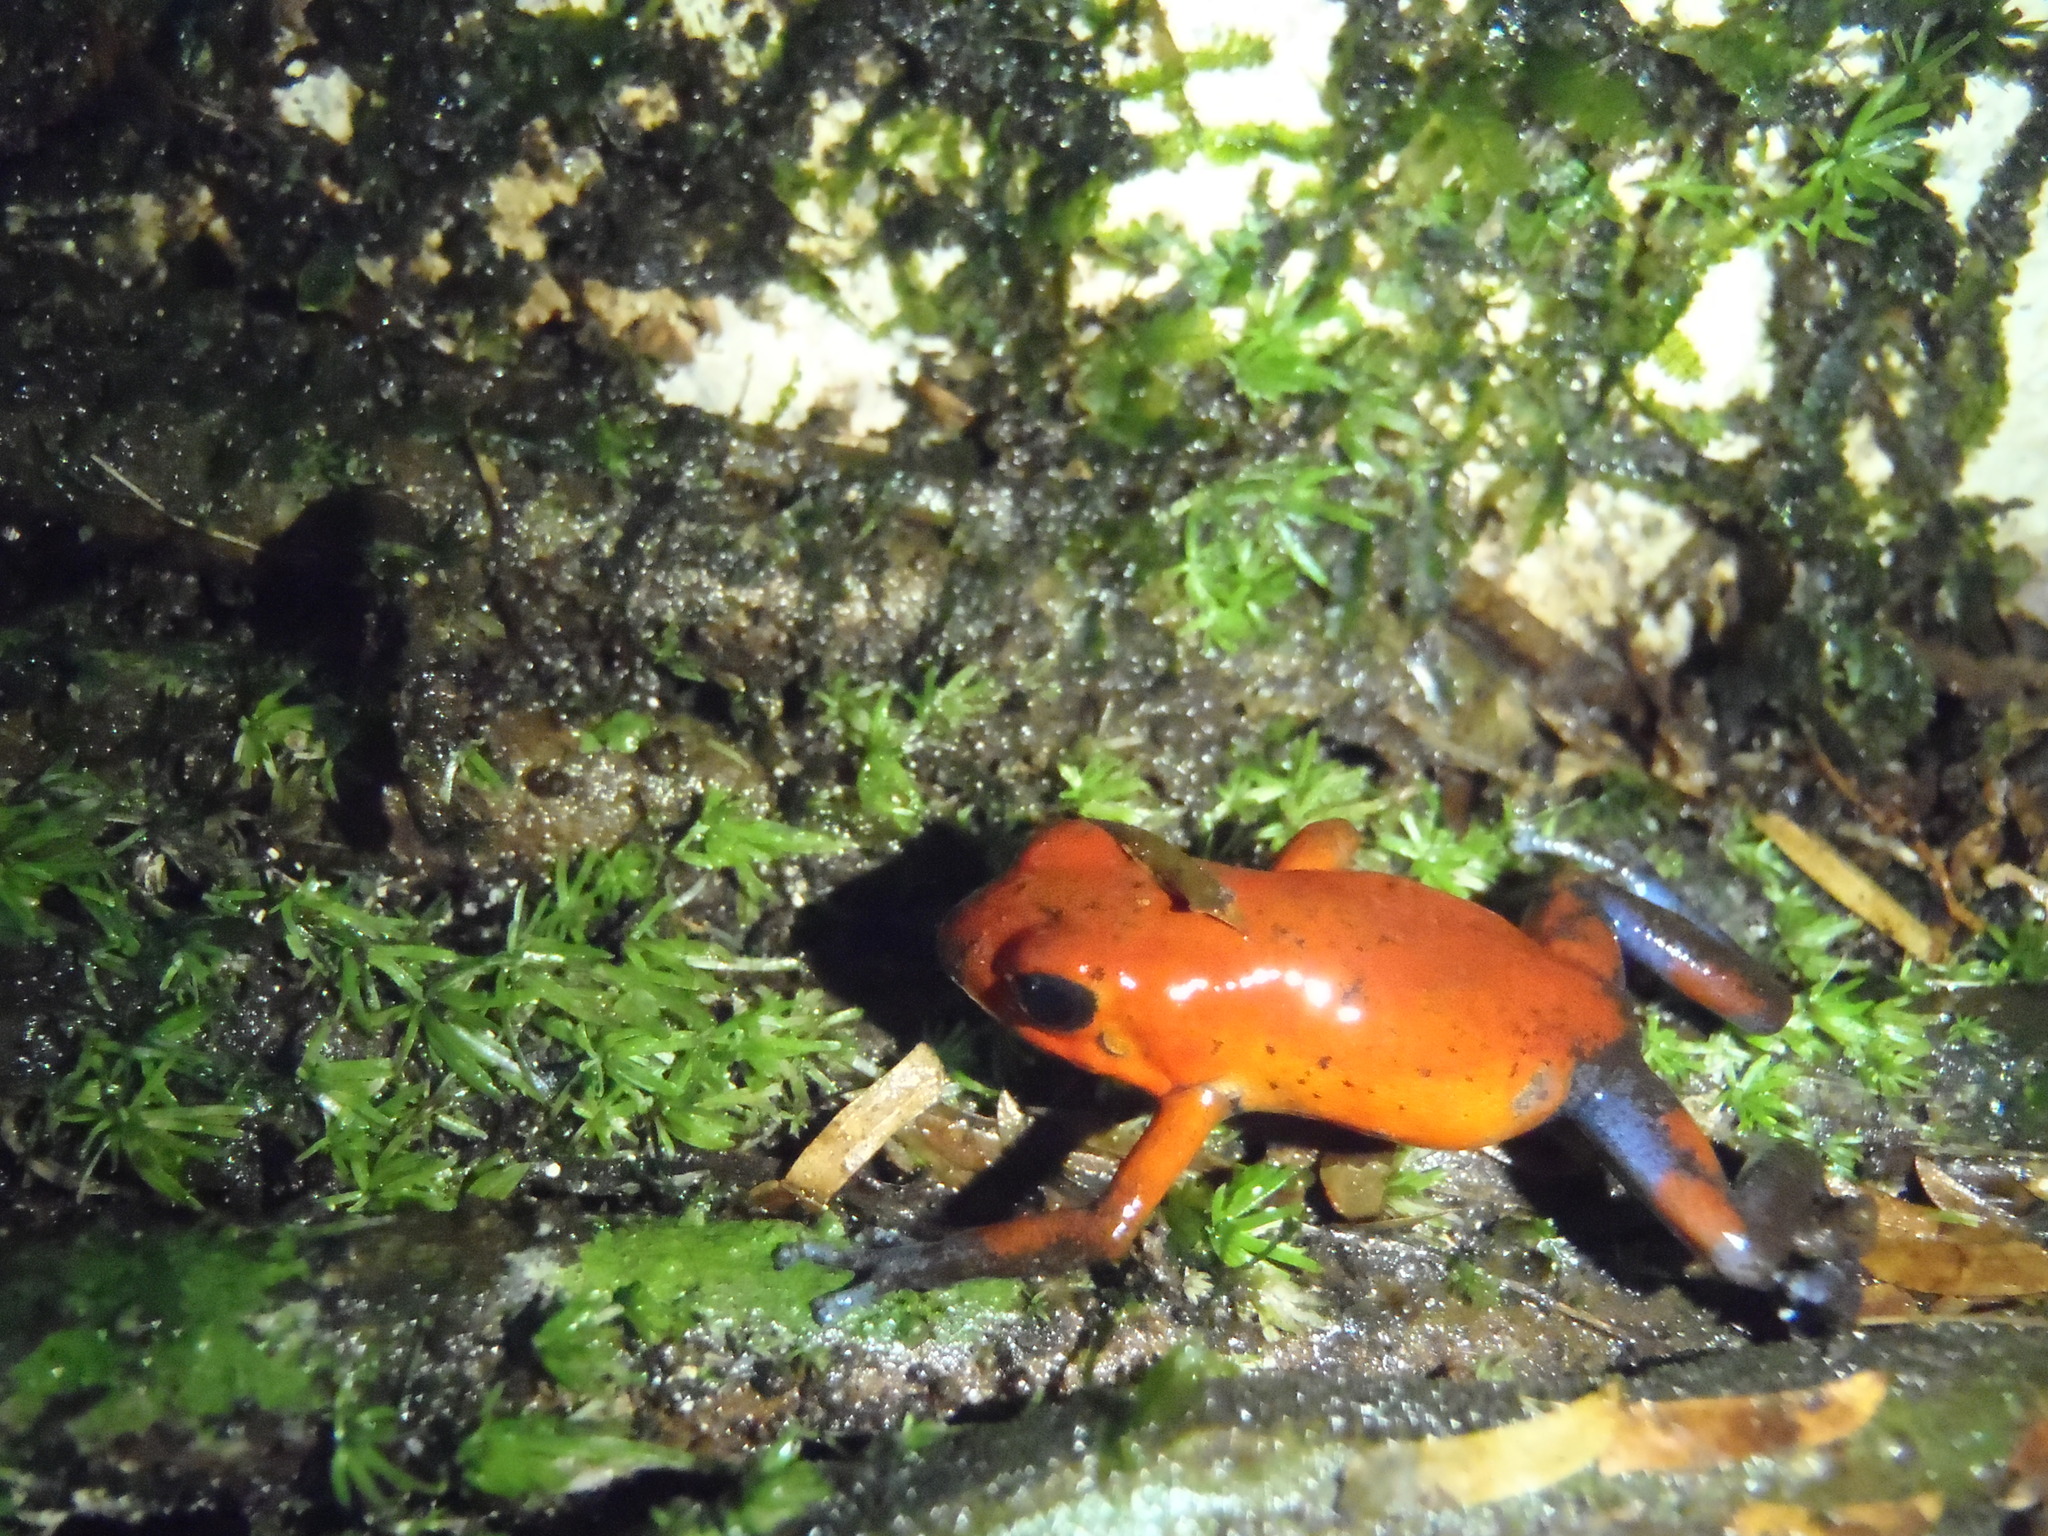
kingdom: Animalia
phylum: Chordata
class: Amphibia
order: Anura
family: Dendrobatidae
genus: Oophaga
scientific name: Oophaga pumilio
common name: Flaming poison frog
